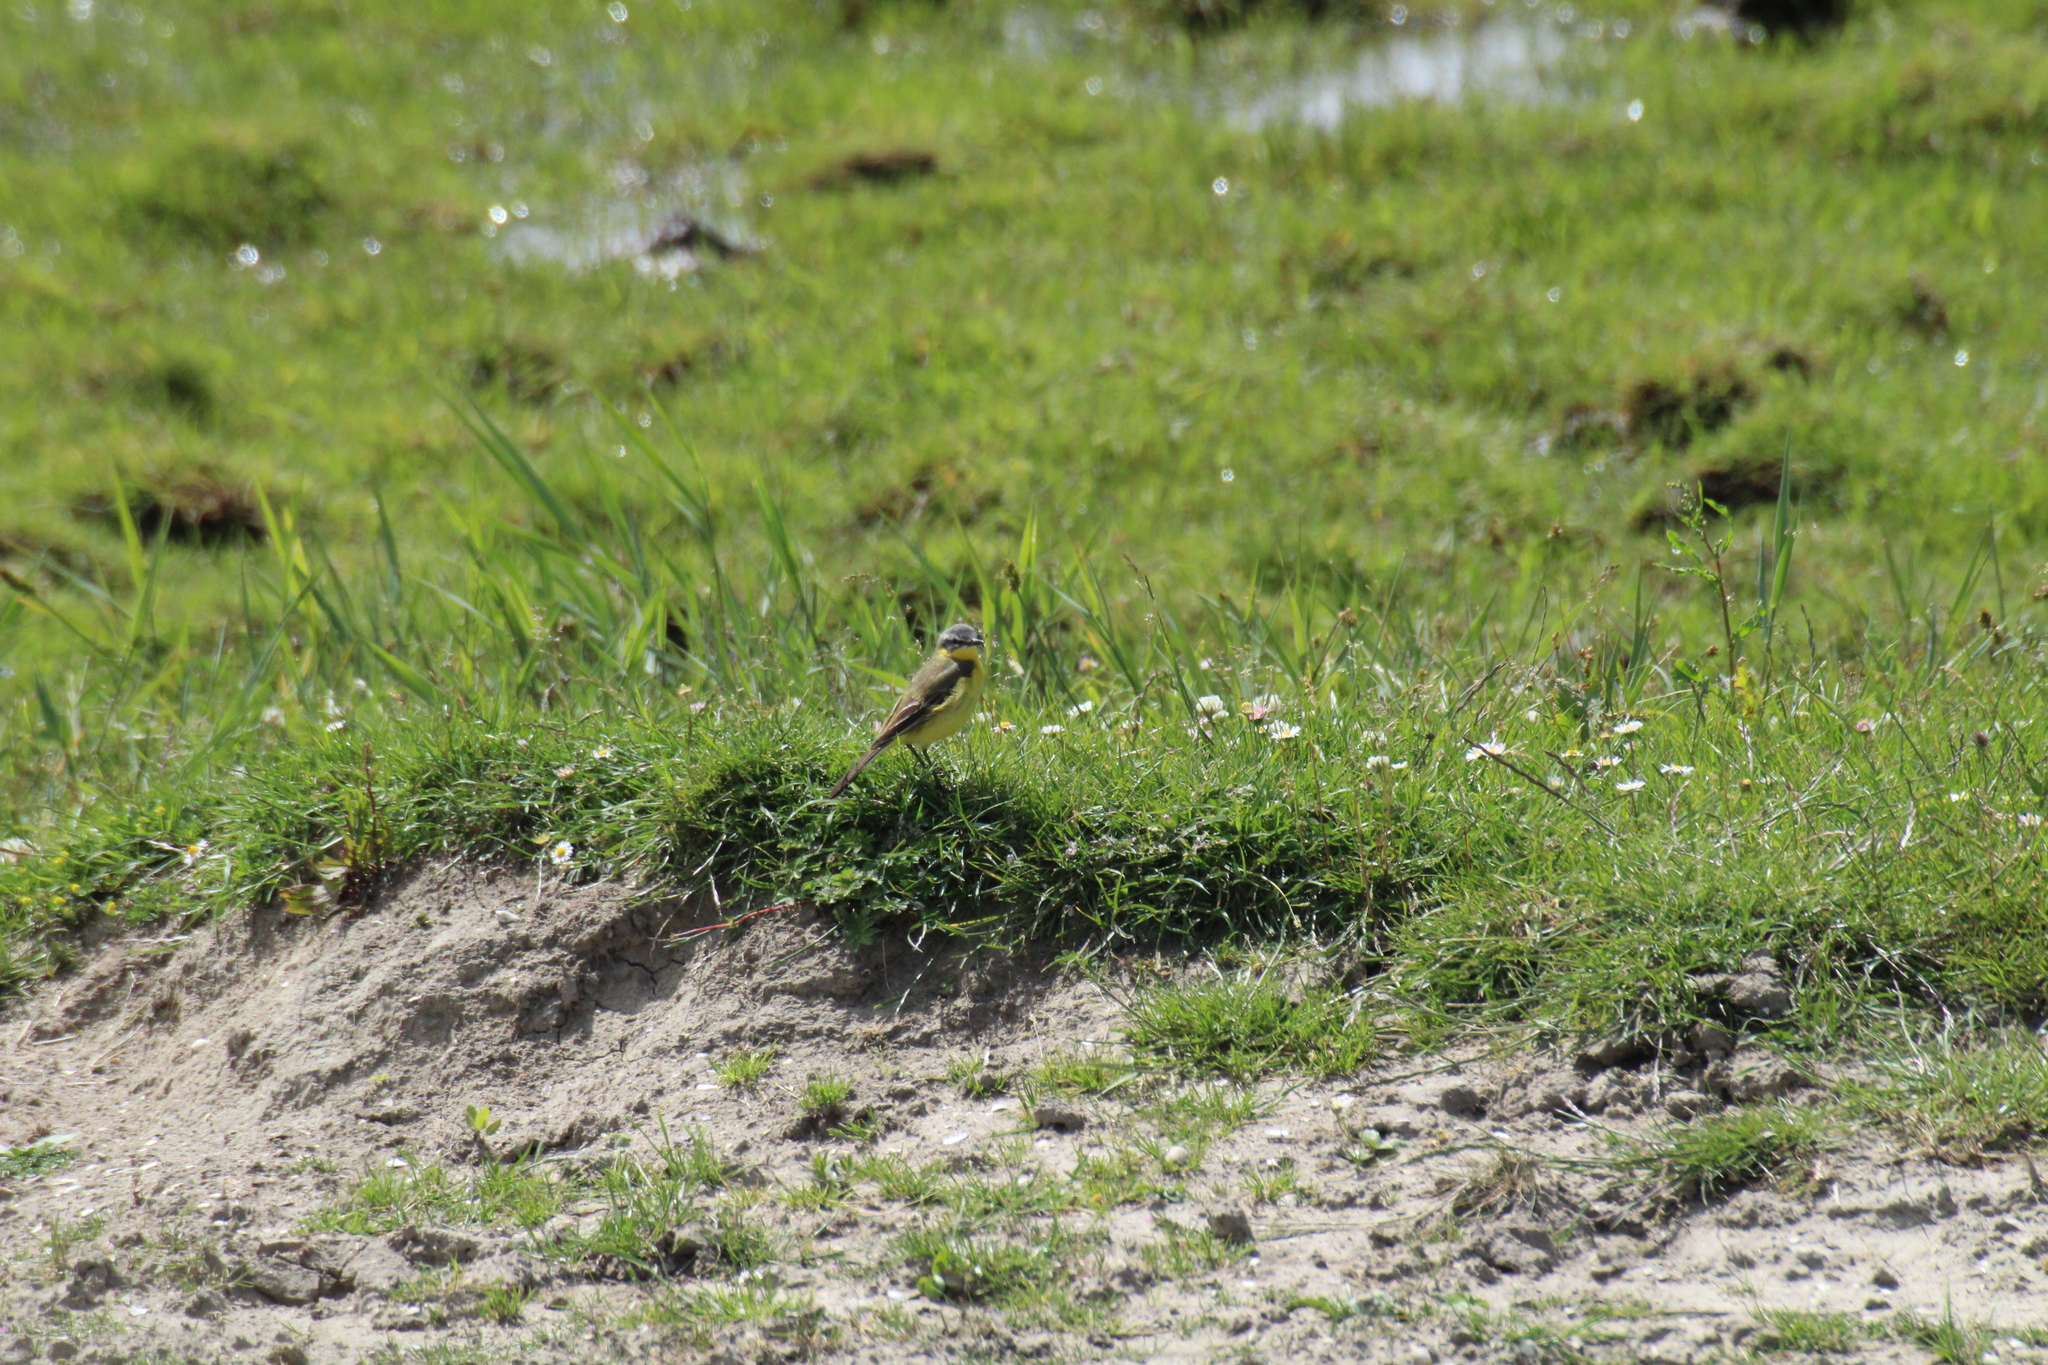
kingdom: Animalia
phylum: Chordata
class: Aves
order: Passeriformes
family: Motacillidae
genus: Motacilla
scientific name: Motacilla flava
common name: Western yellow wagtail
